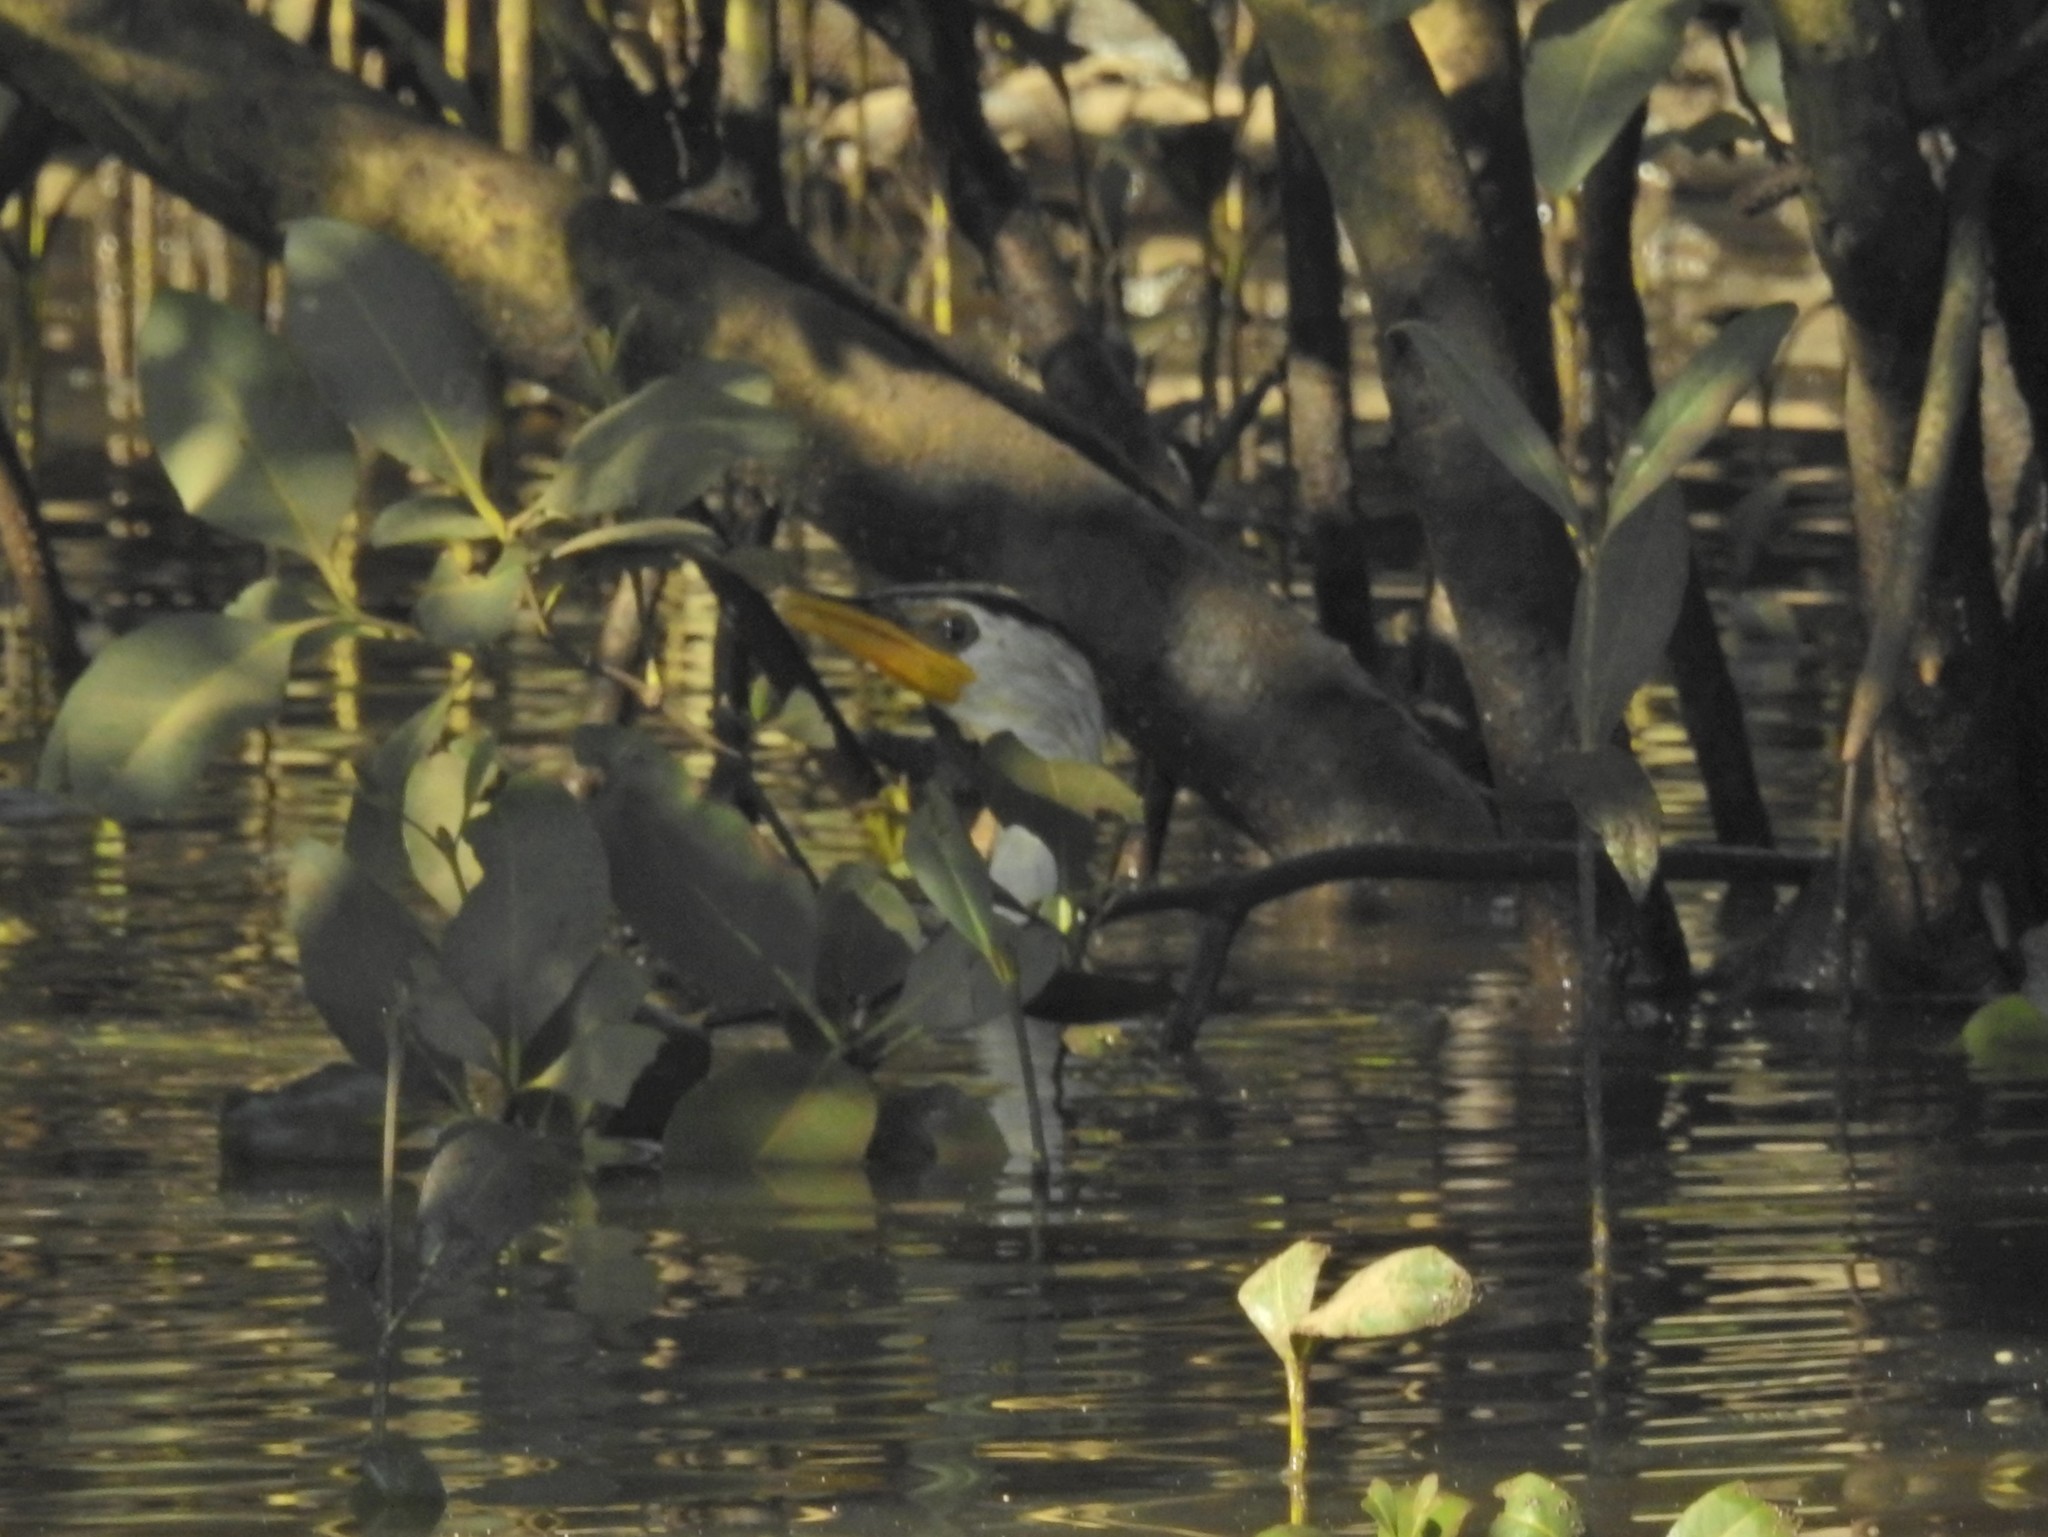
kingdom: Animalia
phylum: Chordata
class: Aves
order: Suliformes
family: Phalacrocoracidae
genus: Microcarbo
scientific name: Microcarbo melanoleucos
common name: Little pied cormorant
